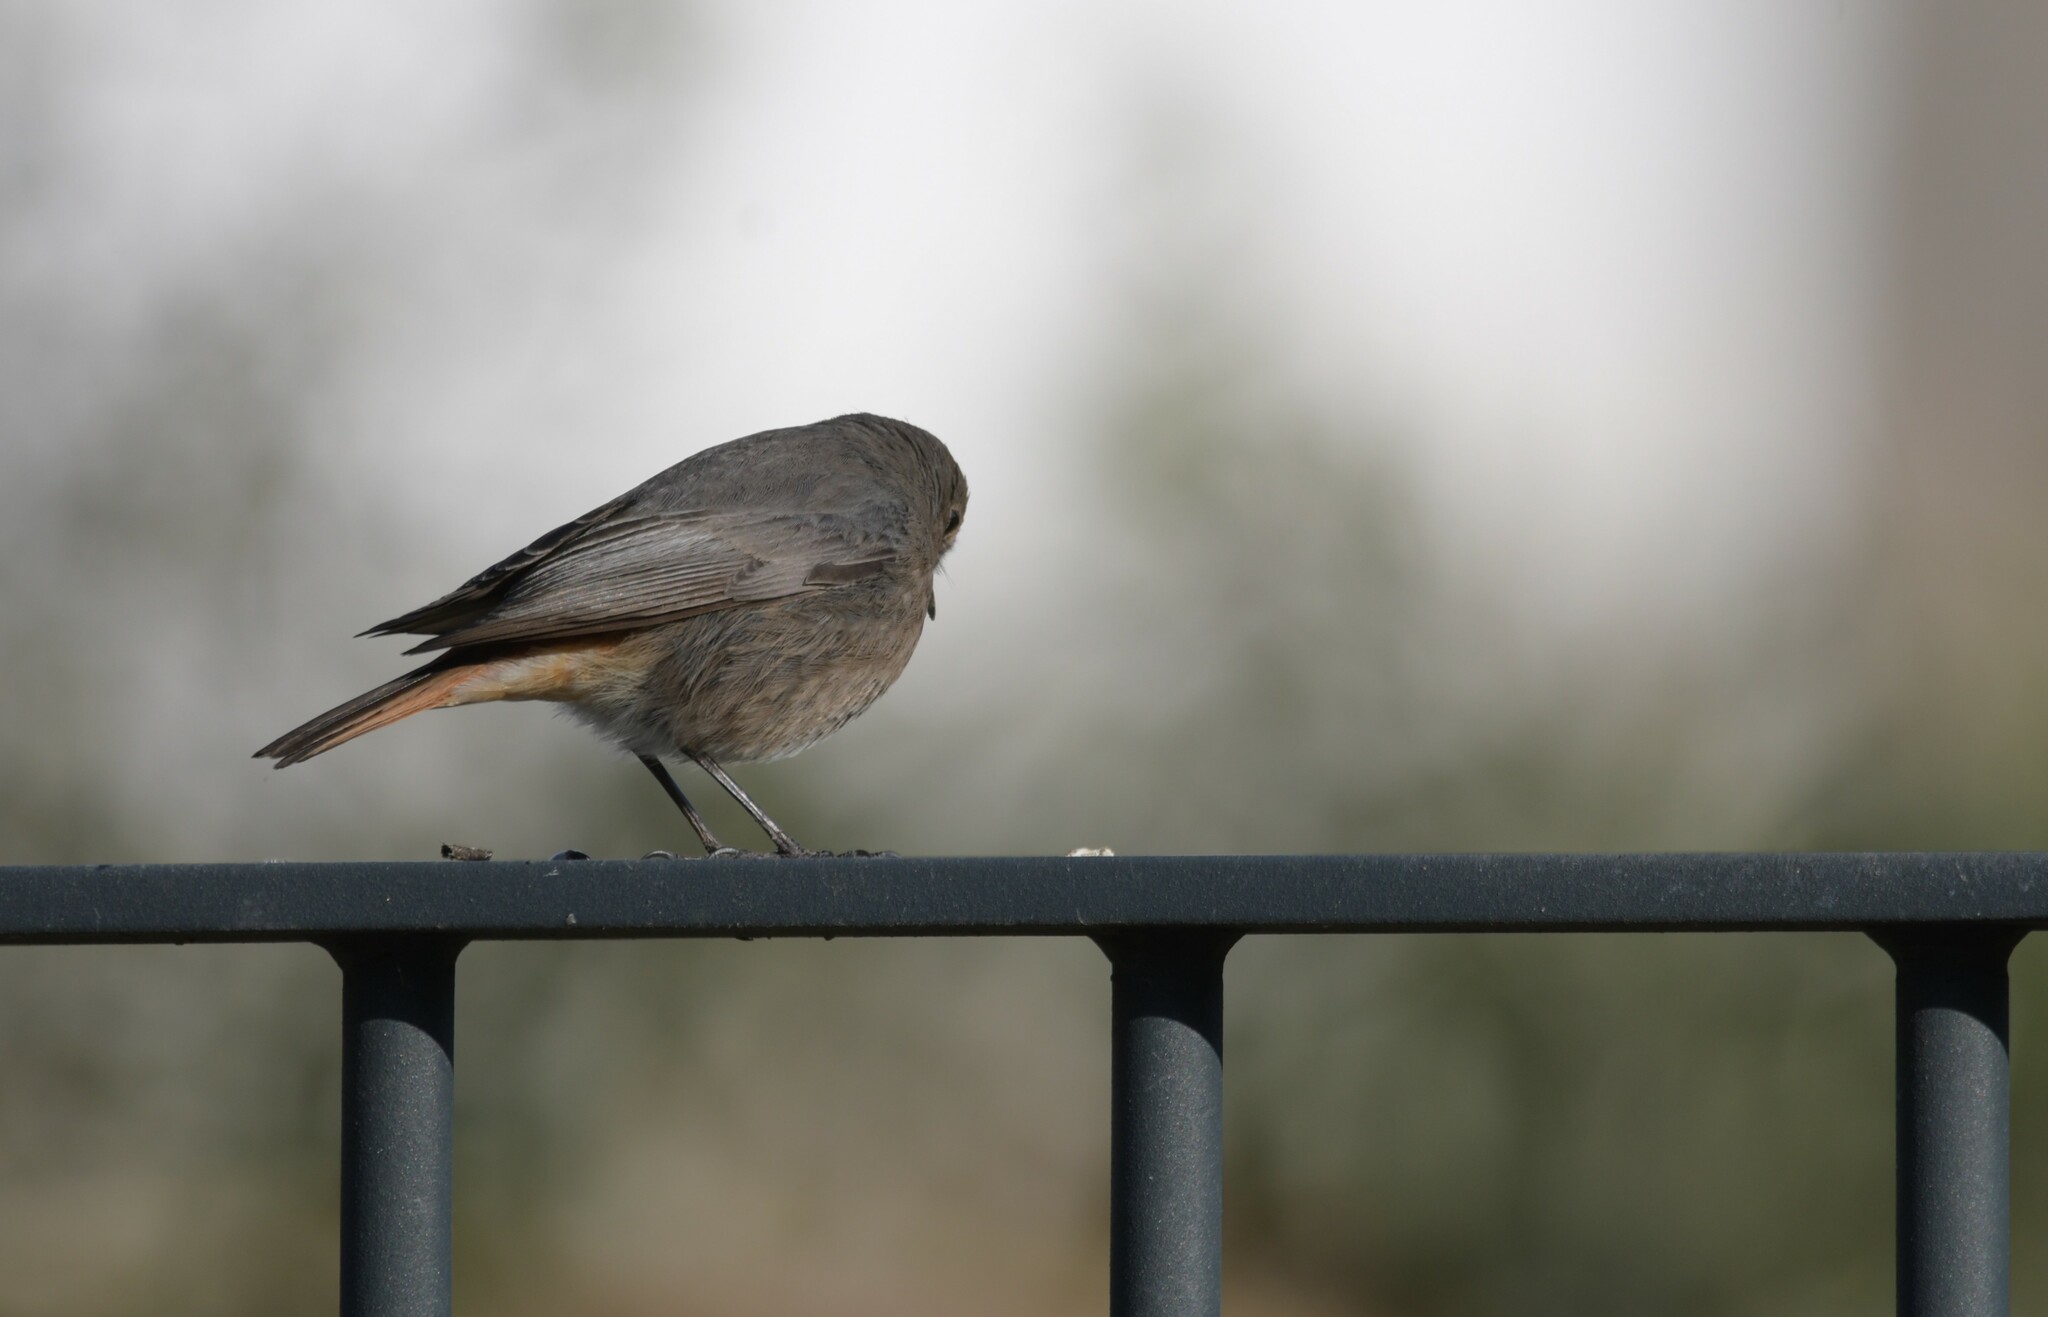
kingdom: Animalia
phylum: Chordata
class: Aves
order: Passeriformes
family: Muscicapidae
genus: Phoenicurus
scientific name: Phoenicurus ochruros
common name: Black redstart
